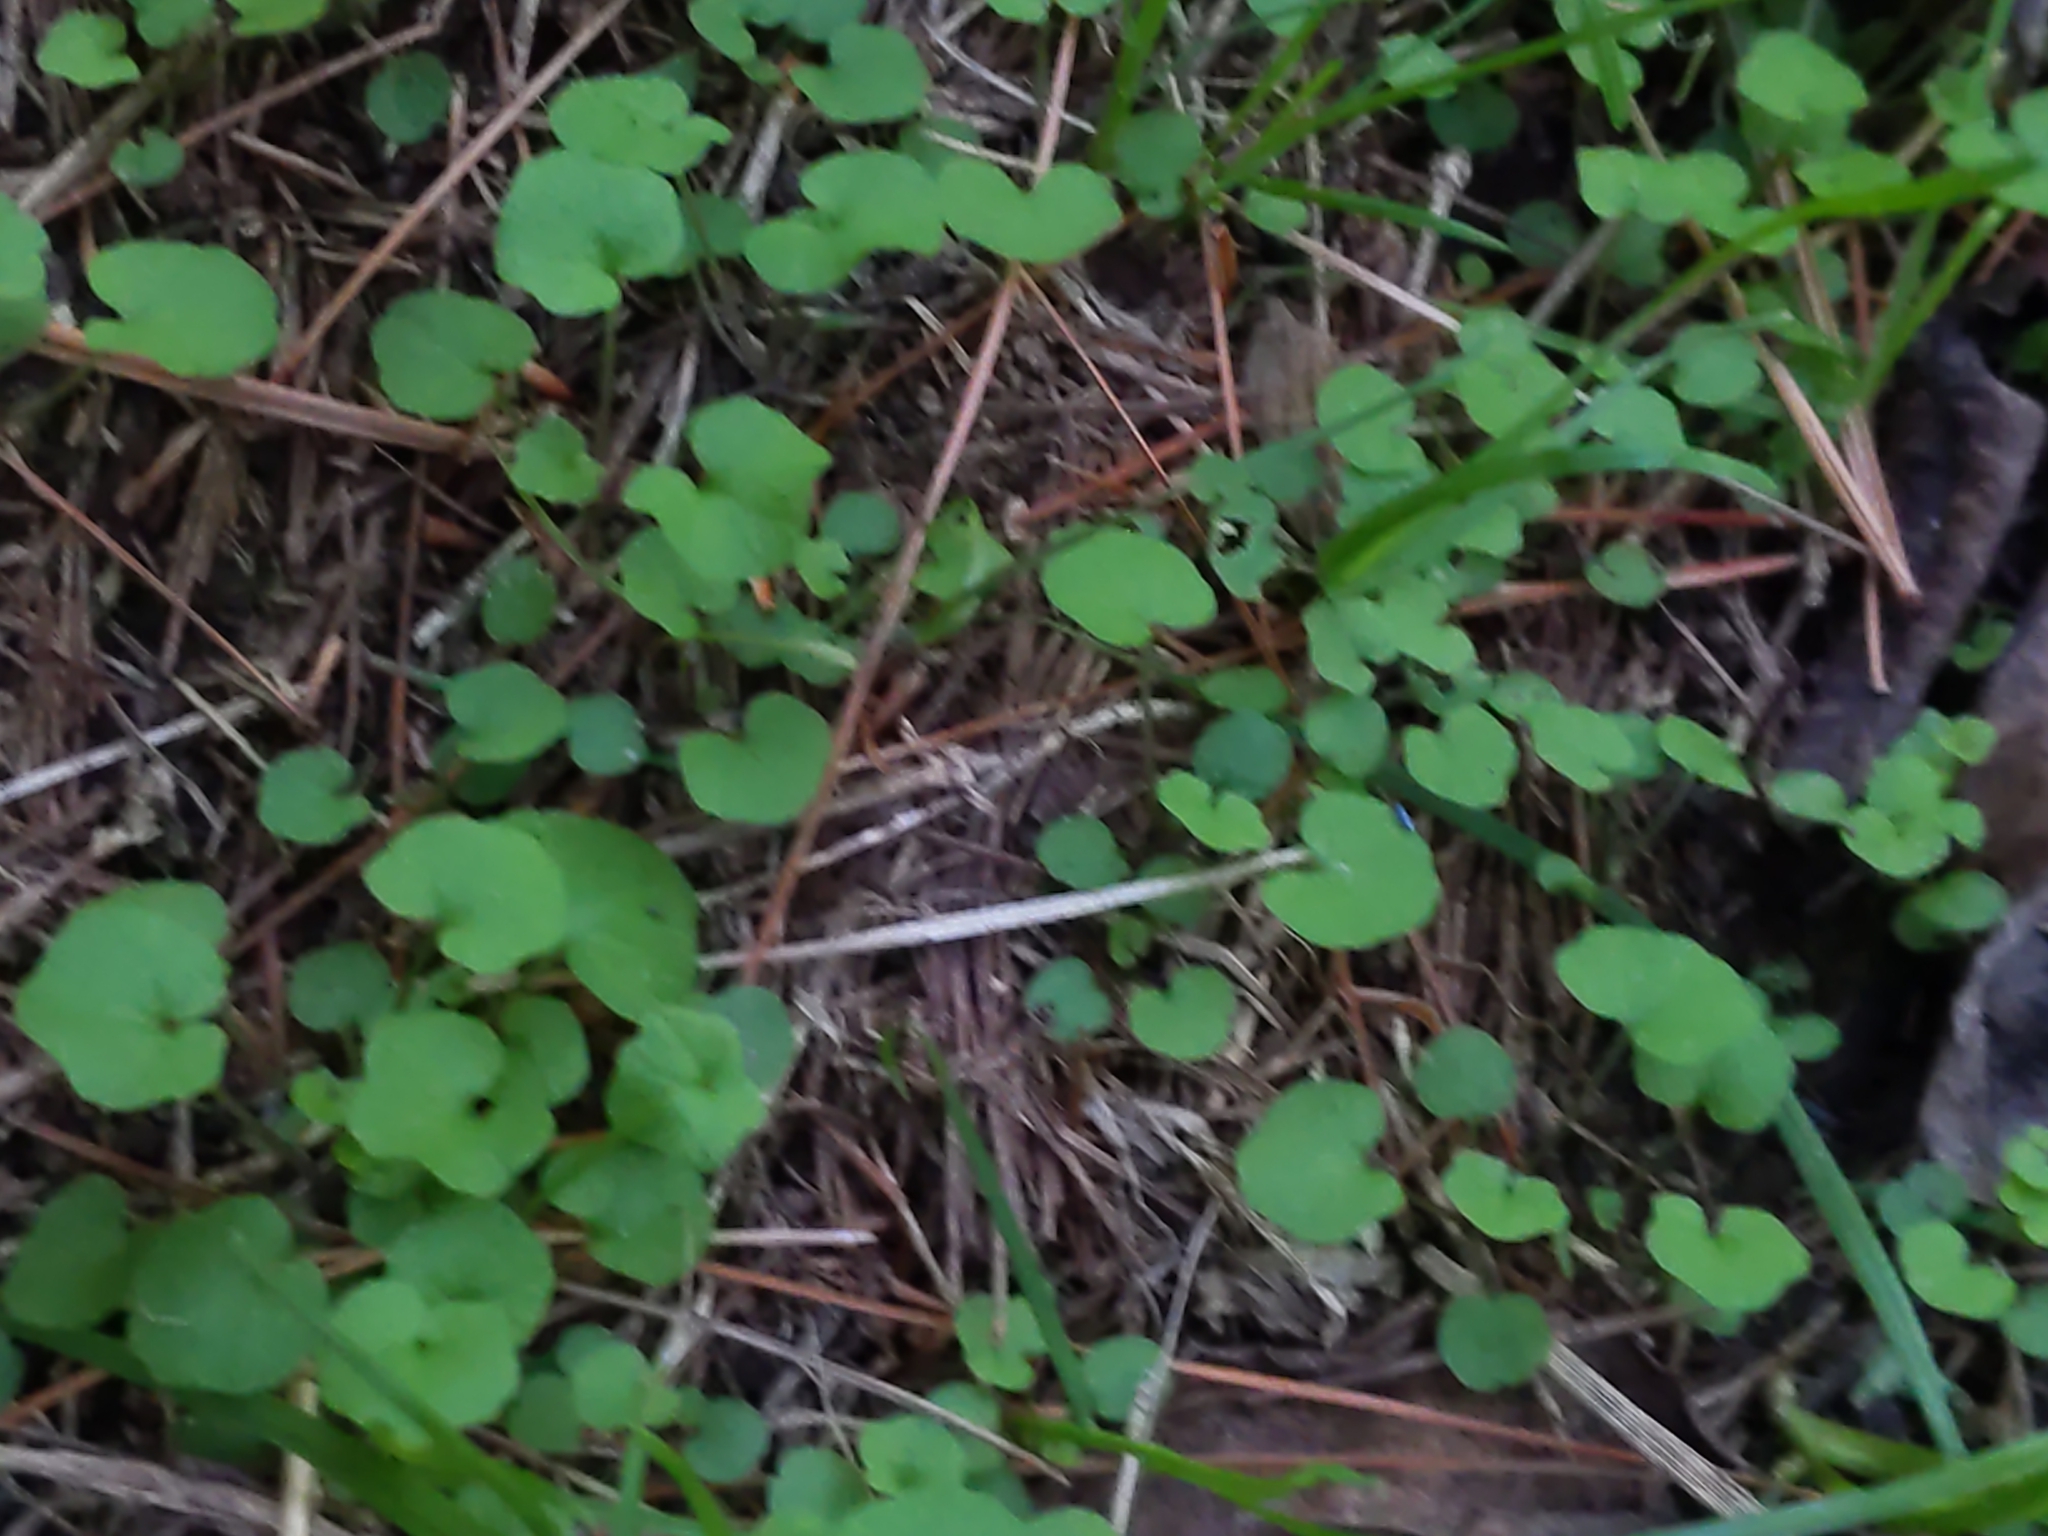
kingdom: Plantae
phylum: Tracheophyta
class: Magnoliopsida
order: Lamiales
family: Lamiaceae
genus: Glechoma
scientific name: Glechoma hederacea
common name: Ground ivy
